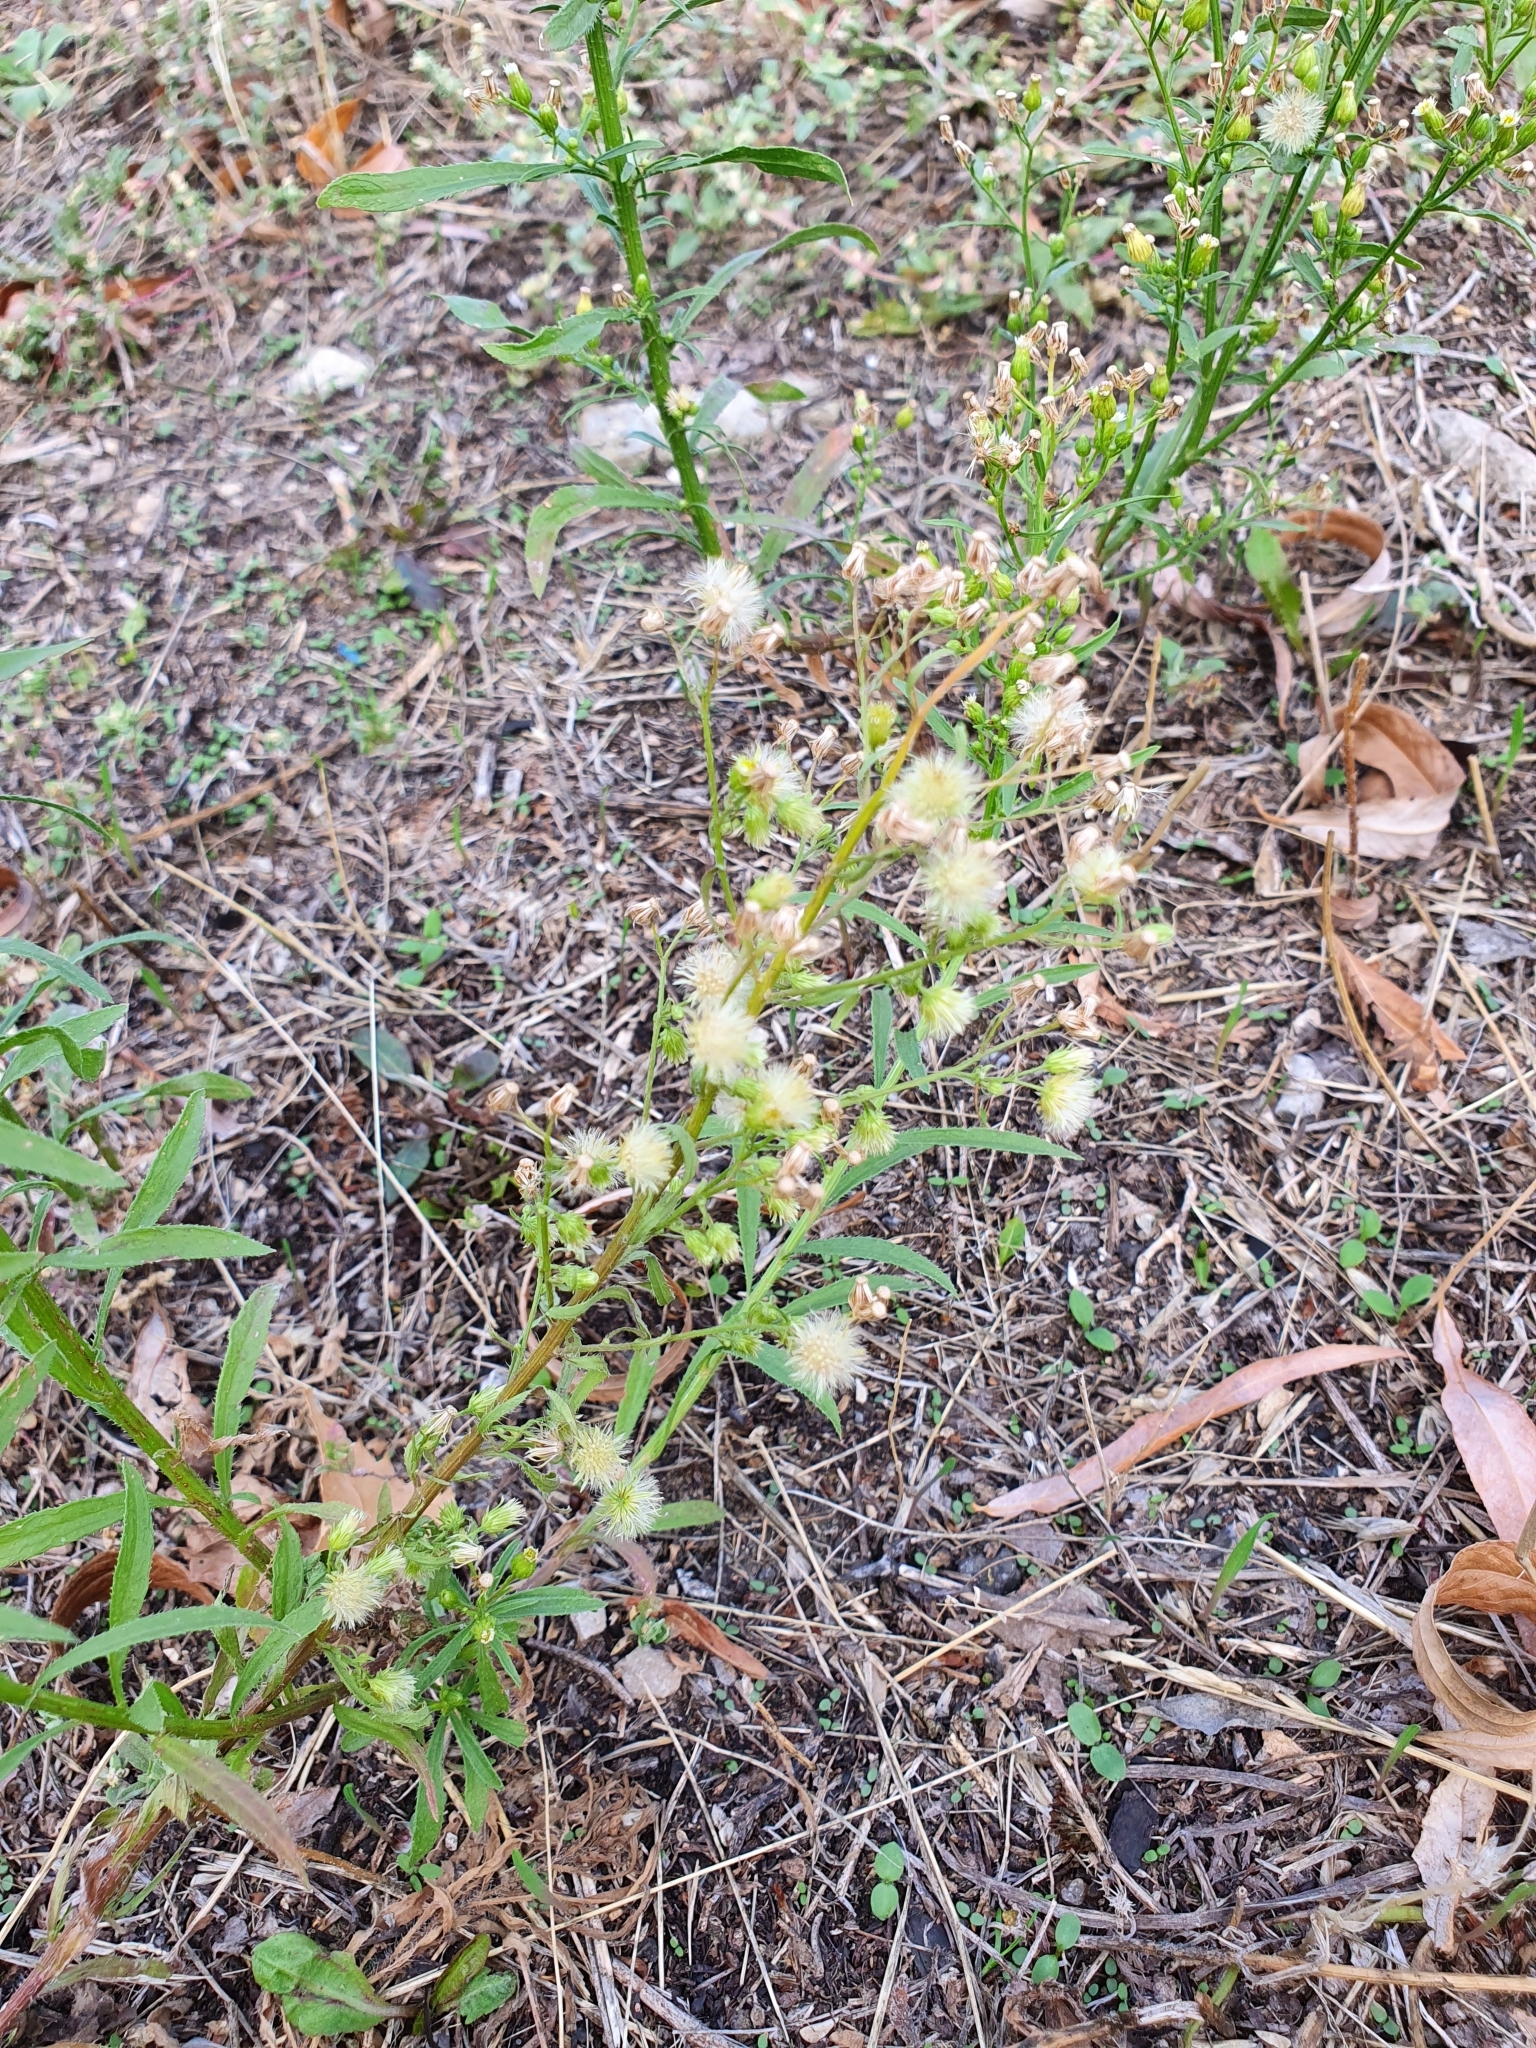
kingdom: Plantae
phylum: Tracheophyta
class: Magnoliopsida
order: Asterales
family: Asteraceae
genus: Erigeron
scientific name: Erigeron canadensis
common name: Canadian fleabane
